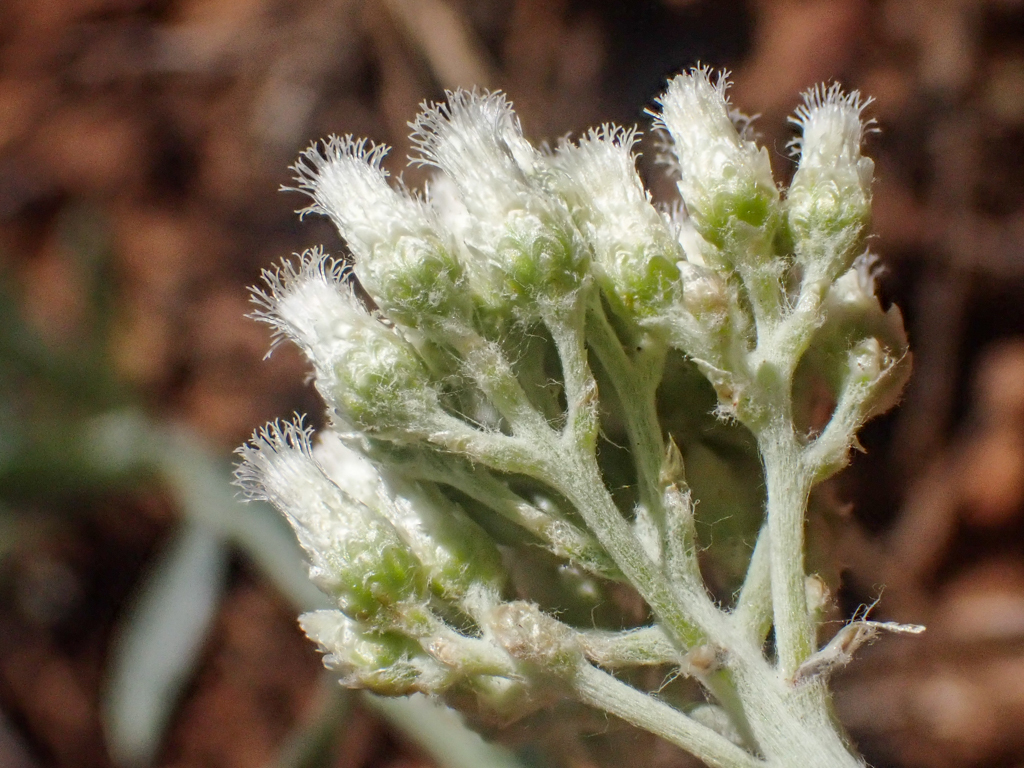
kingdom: Plantae
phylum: Tracheophyta
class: Magnoliopsida
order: Asterales
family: Asteraceae
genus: Antennaria
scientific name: Antennaria argentea
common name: Silver pussytoes
